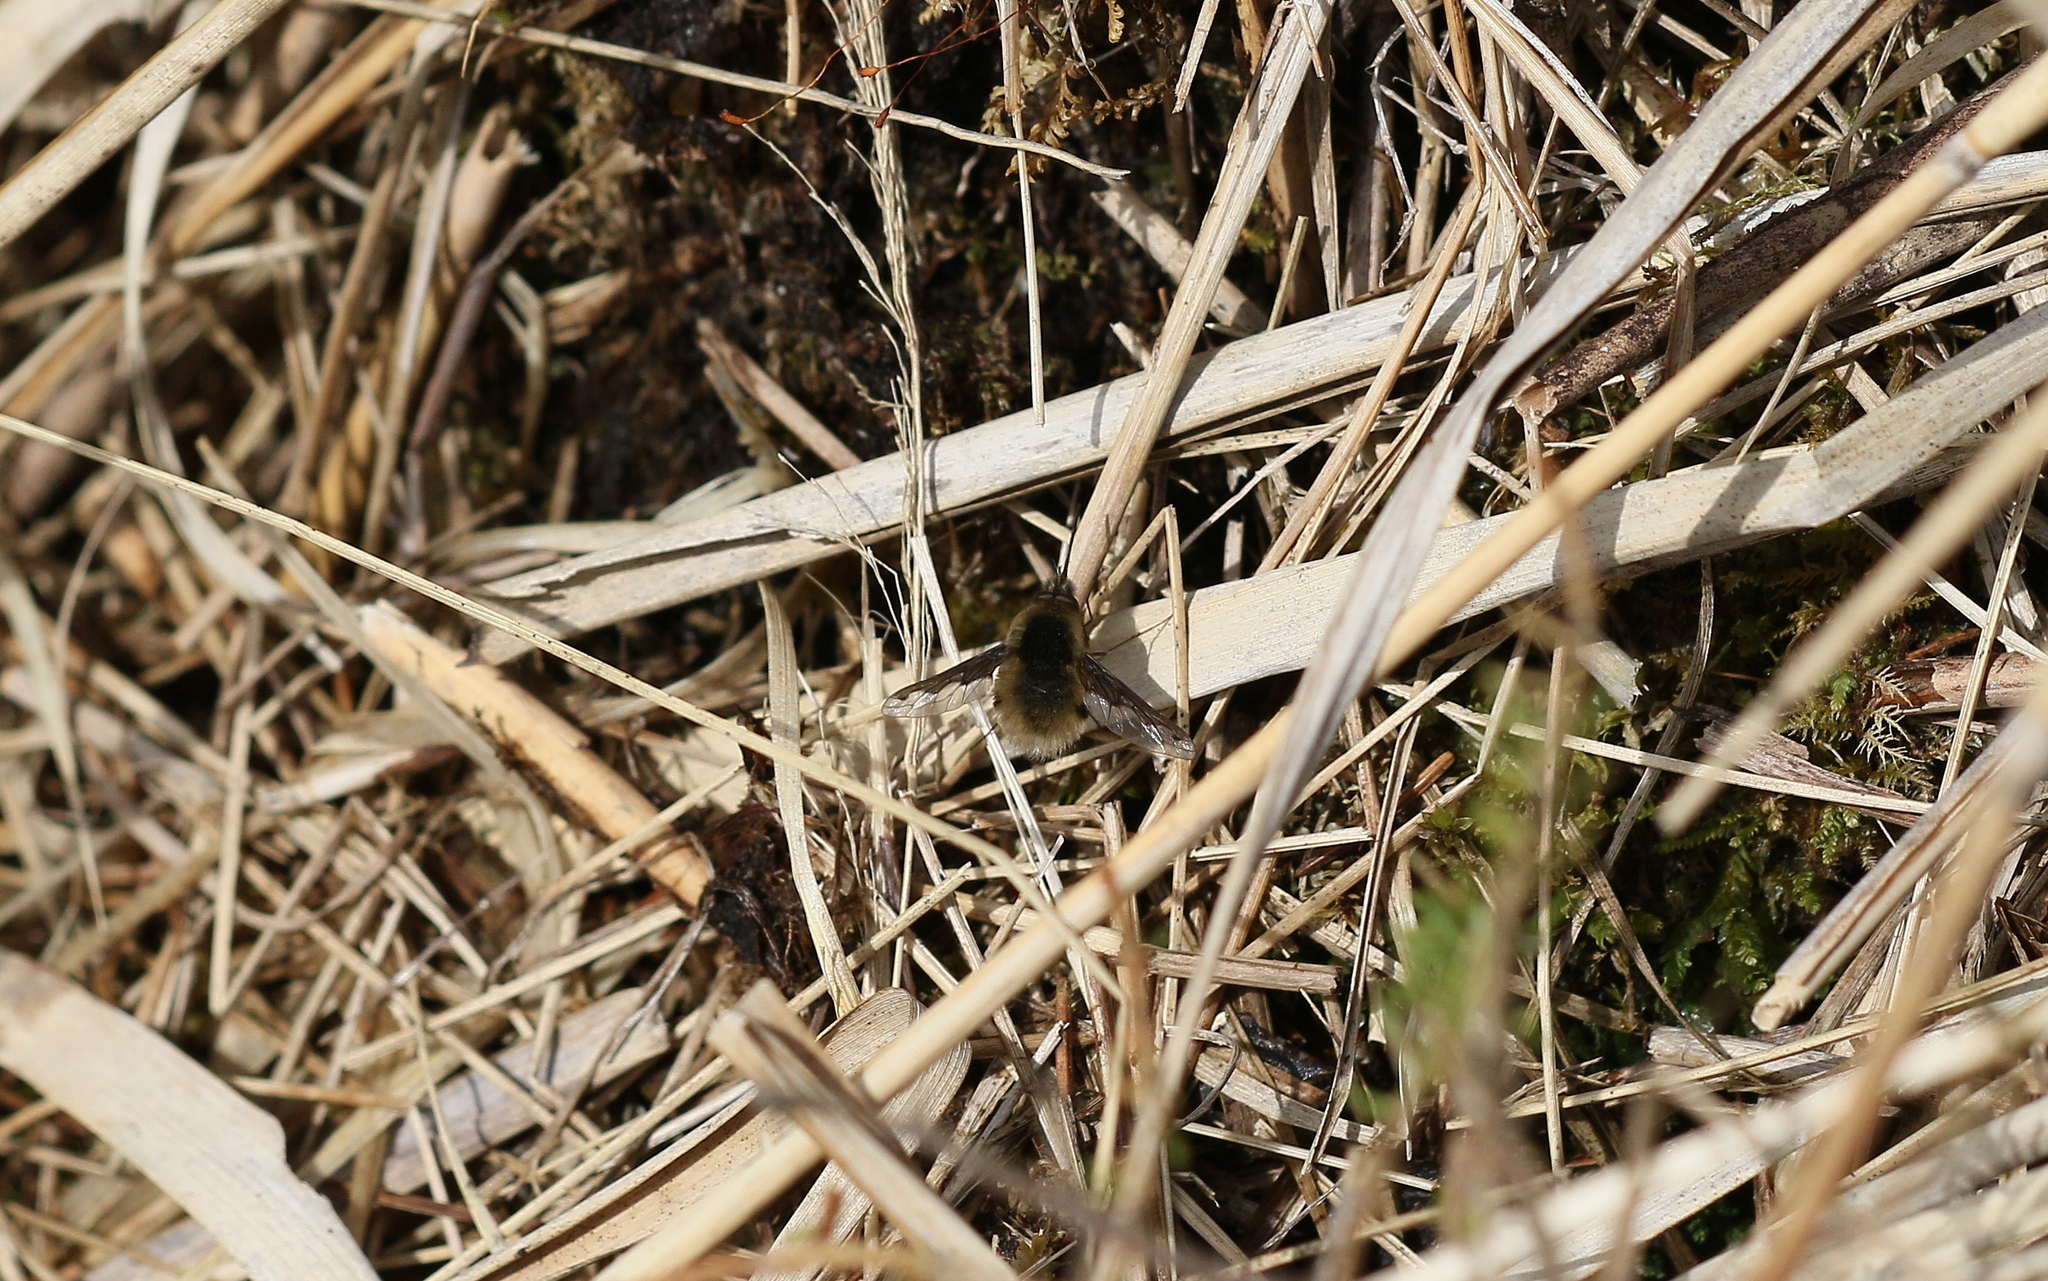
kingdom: Animalia
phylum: Arthropoda
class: Insecta
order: Diptera
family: Bombyliidae
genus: Bombylius
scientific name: Bombylius major
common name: Bee fly
